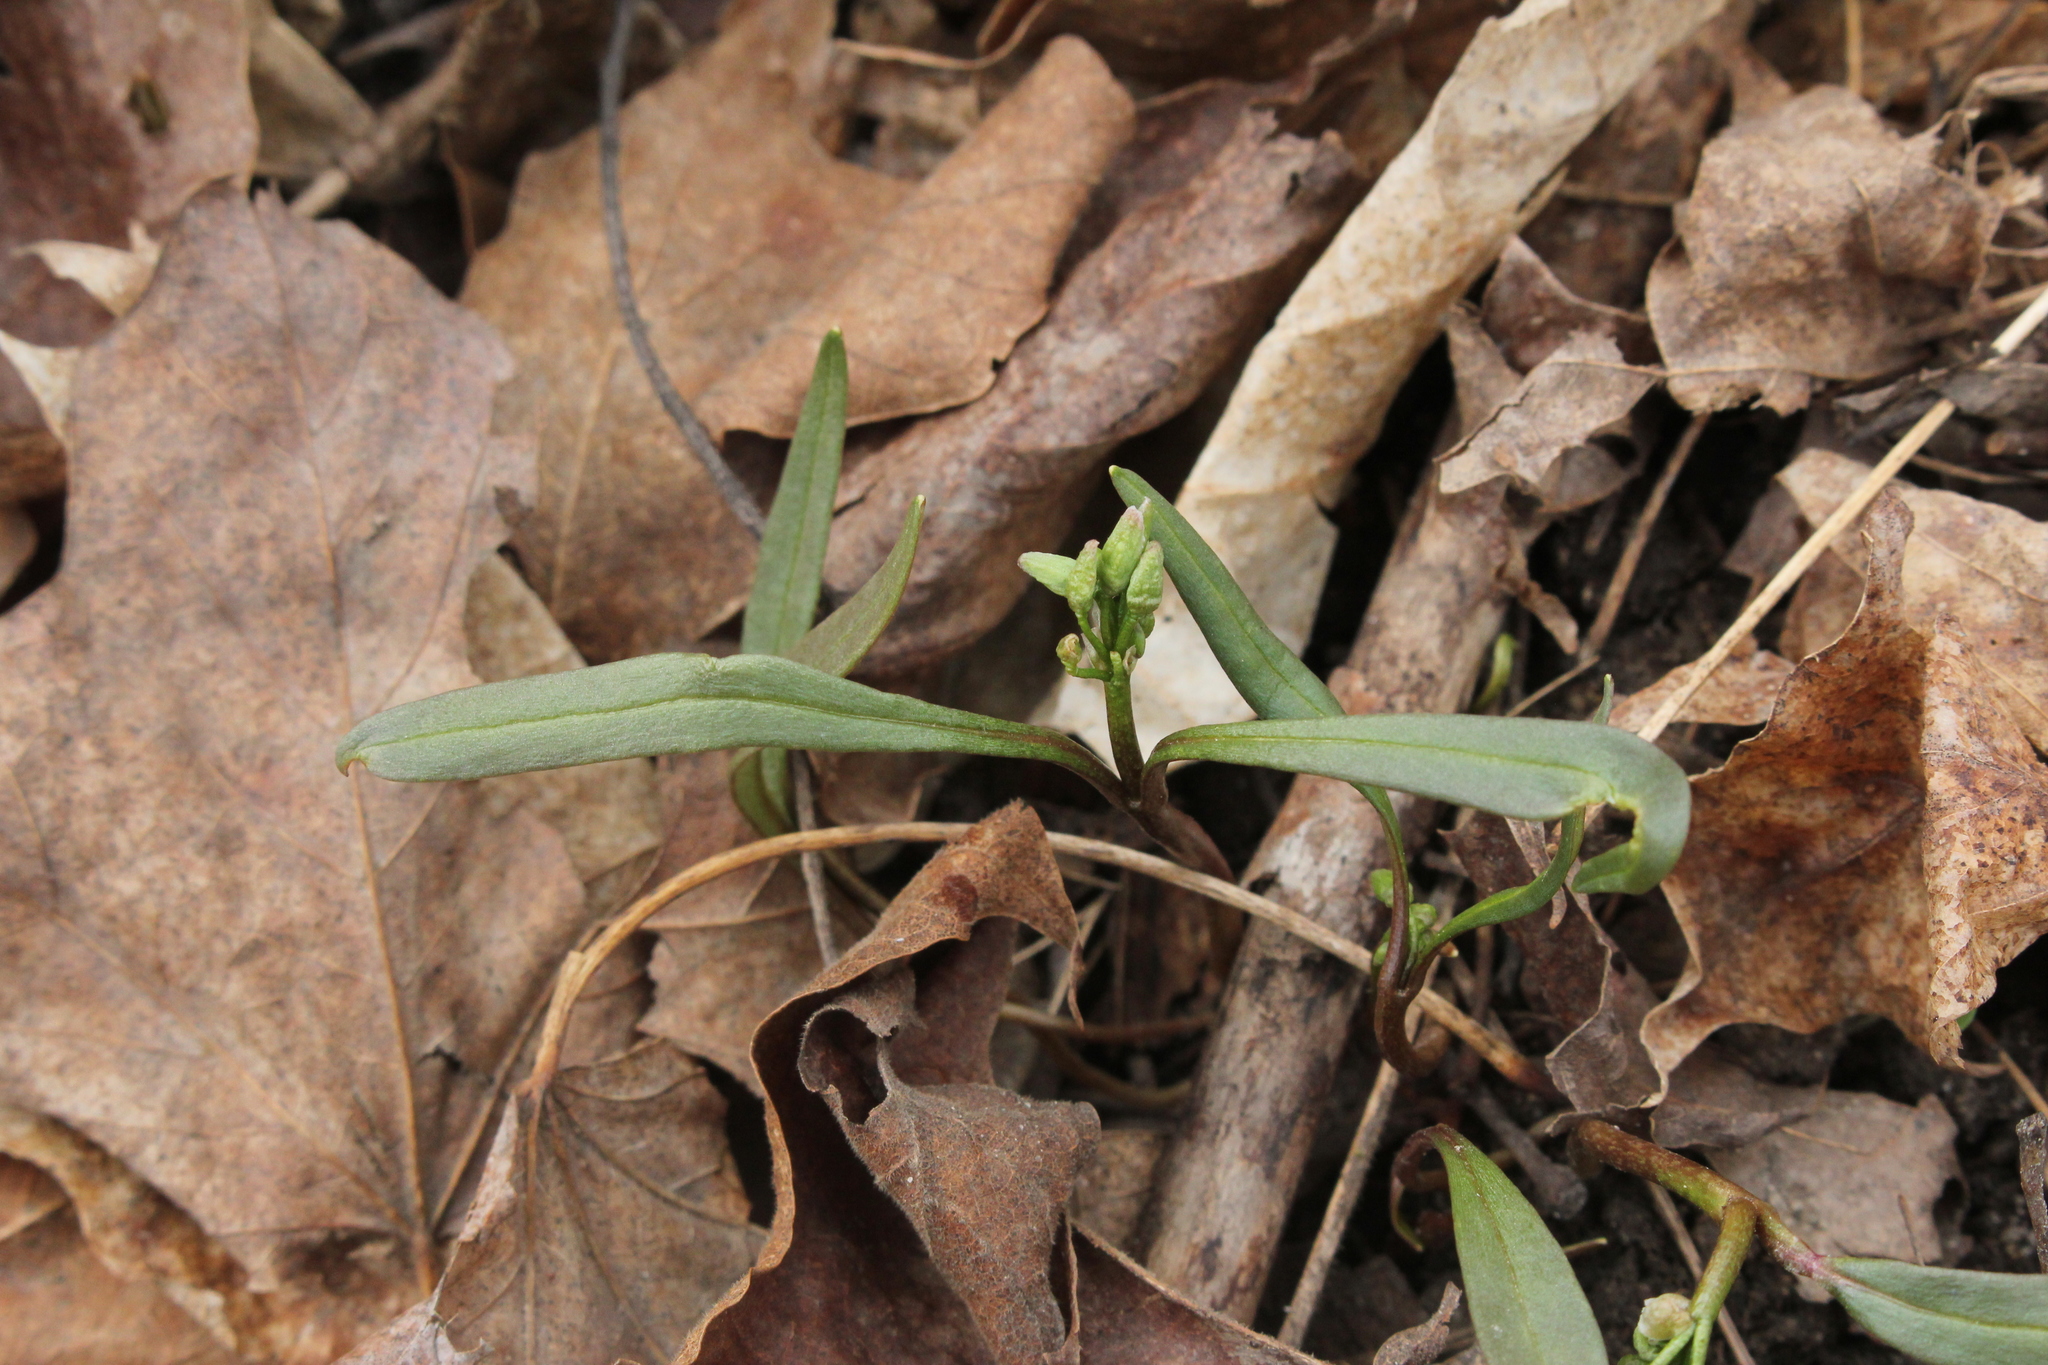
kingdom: Plantae
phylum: Tracheophyta
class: Magnoliopsida
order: Caryophyllales
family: Montiaceae
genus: Claytonia
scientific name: Claytonia virginica
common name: Virginia springbeauty
